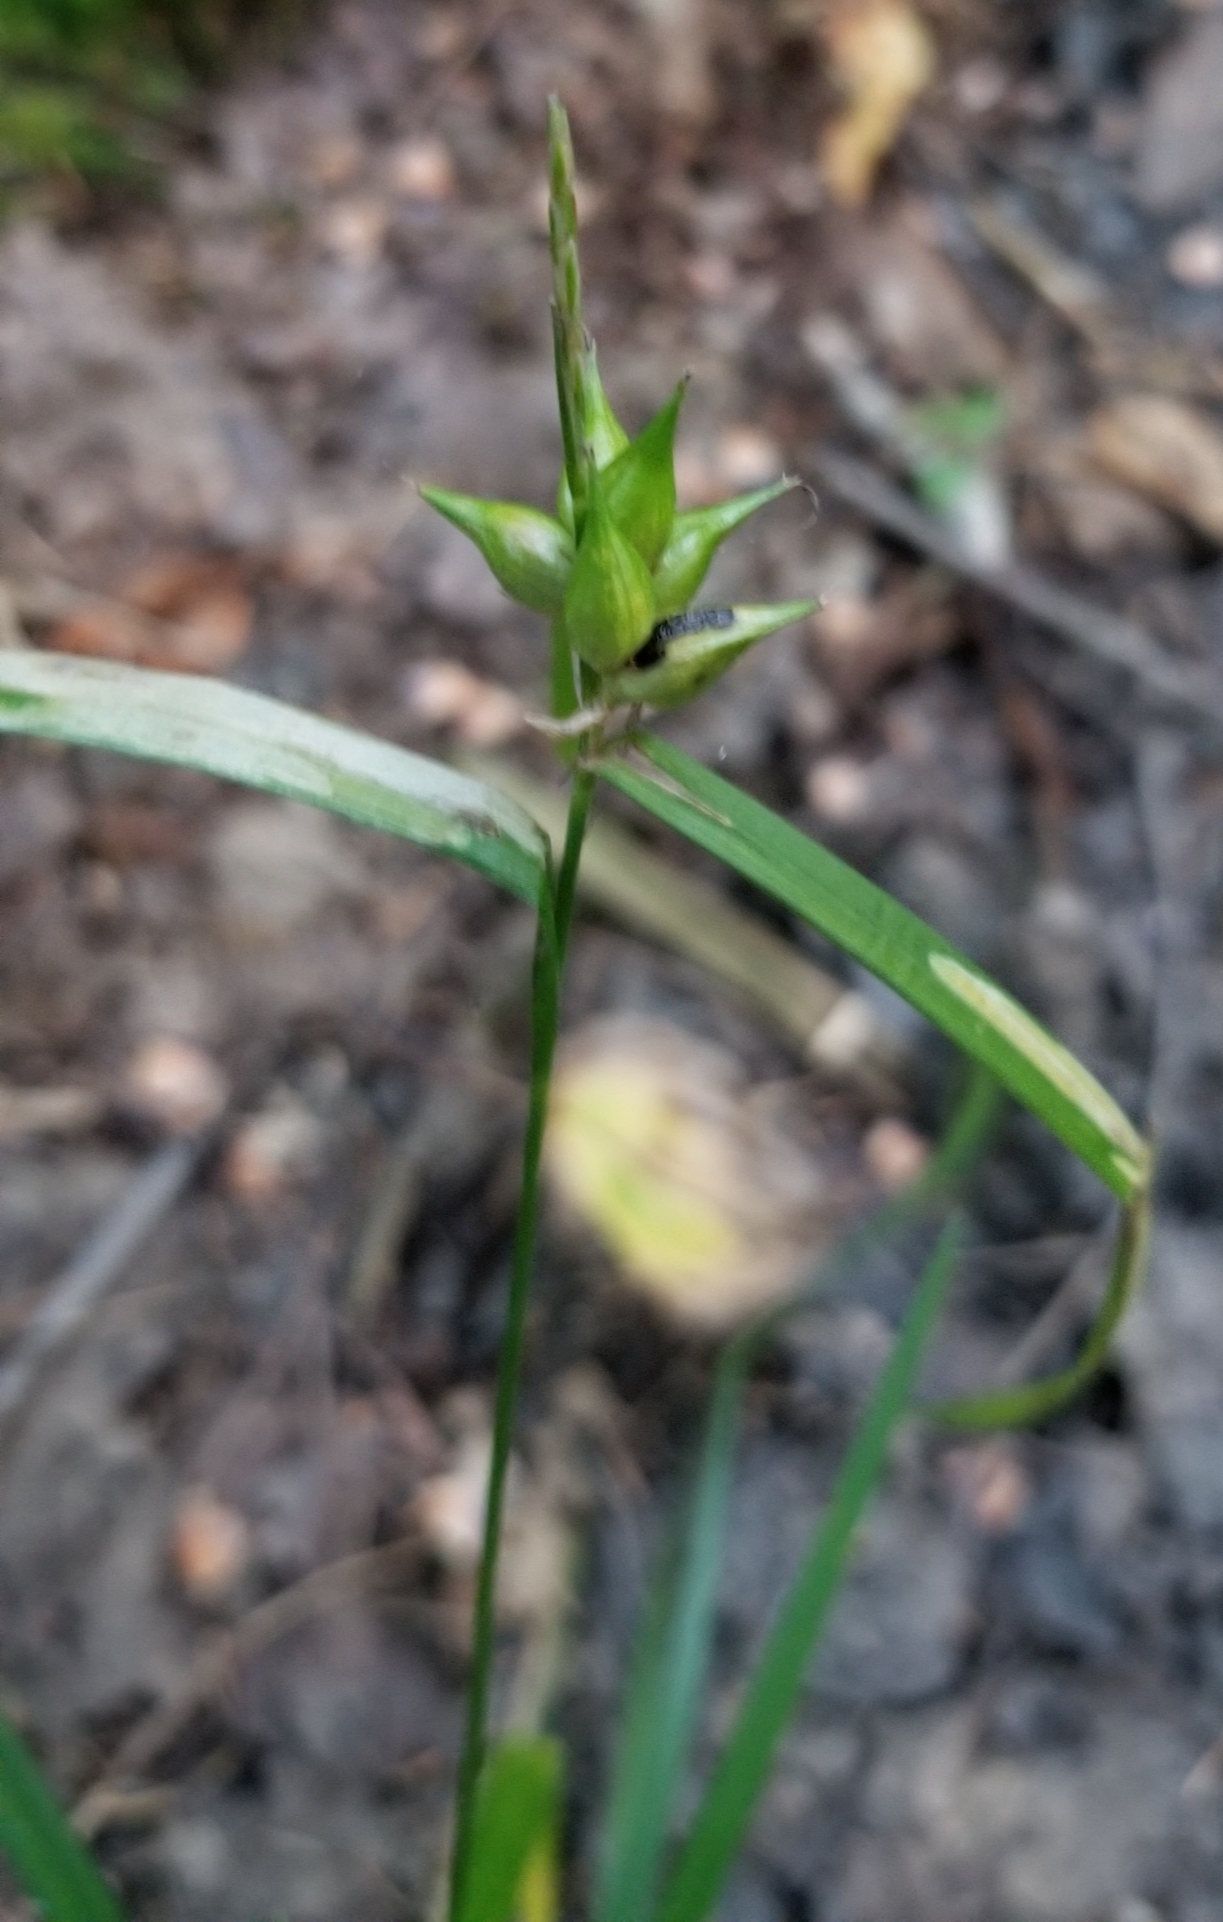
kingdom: Plantae
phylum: Tracheophyta
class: Liliopsida
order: Poales
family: Cyperaceae
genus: Carex
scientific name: Carex intumescens
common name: Greater bladder sedge
